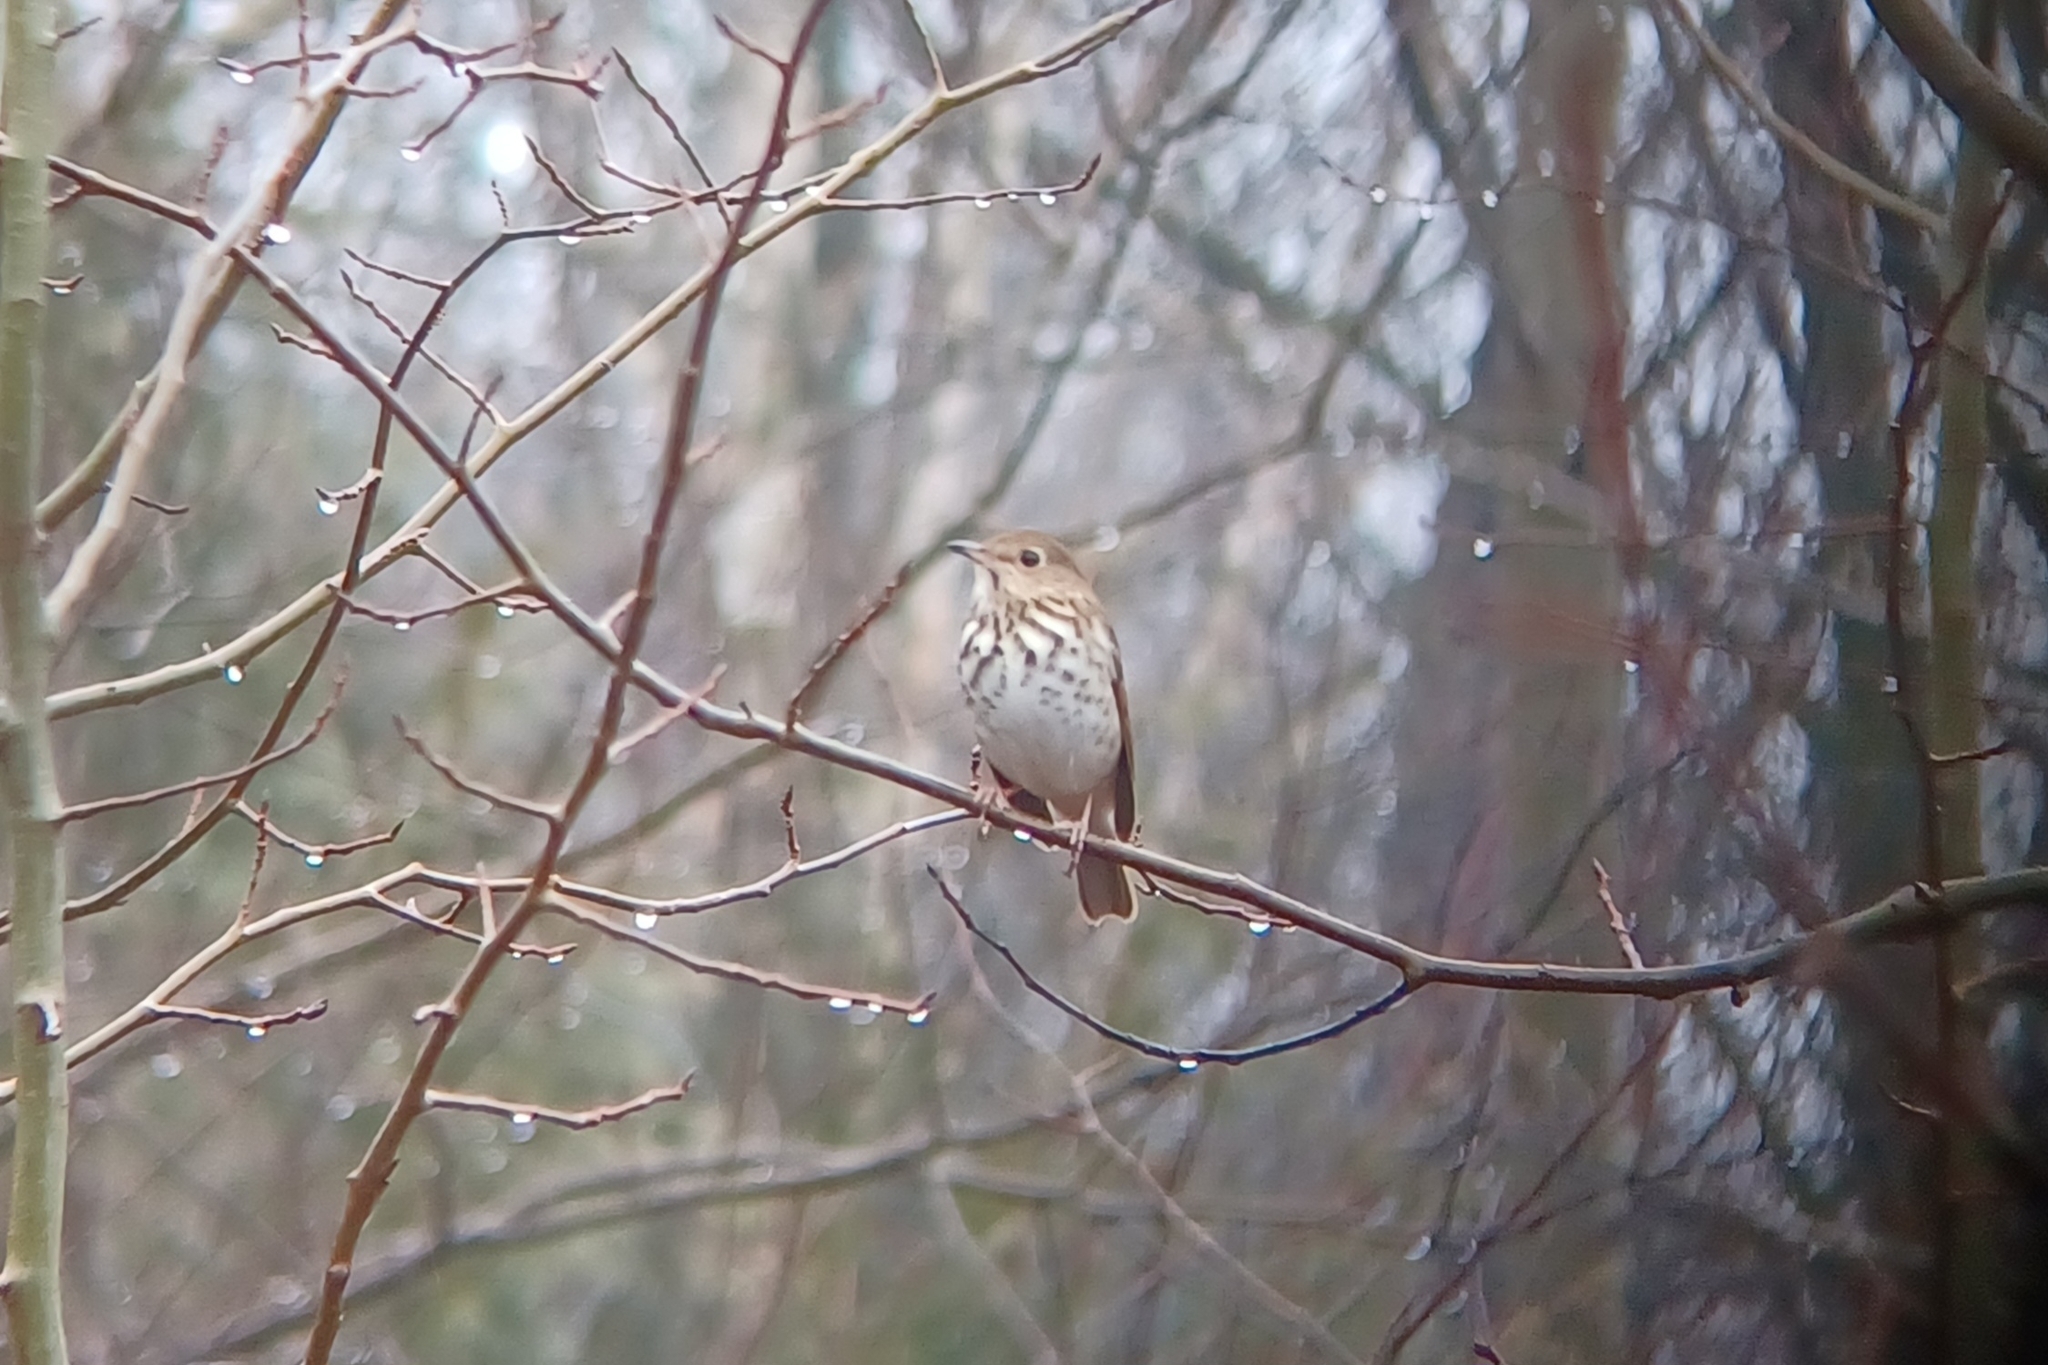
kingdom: Animalia
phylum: Chordata
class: Aves
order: Passeriformes
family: Turdidae
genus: Catharus
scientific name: Catharus guttatus
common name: Hermit thrush
